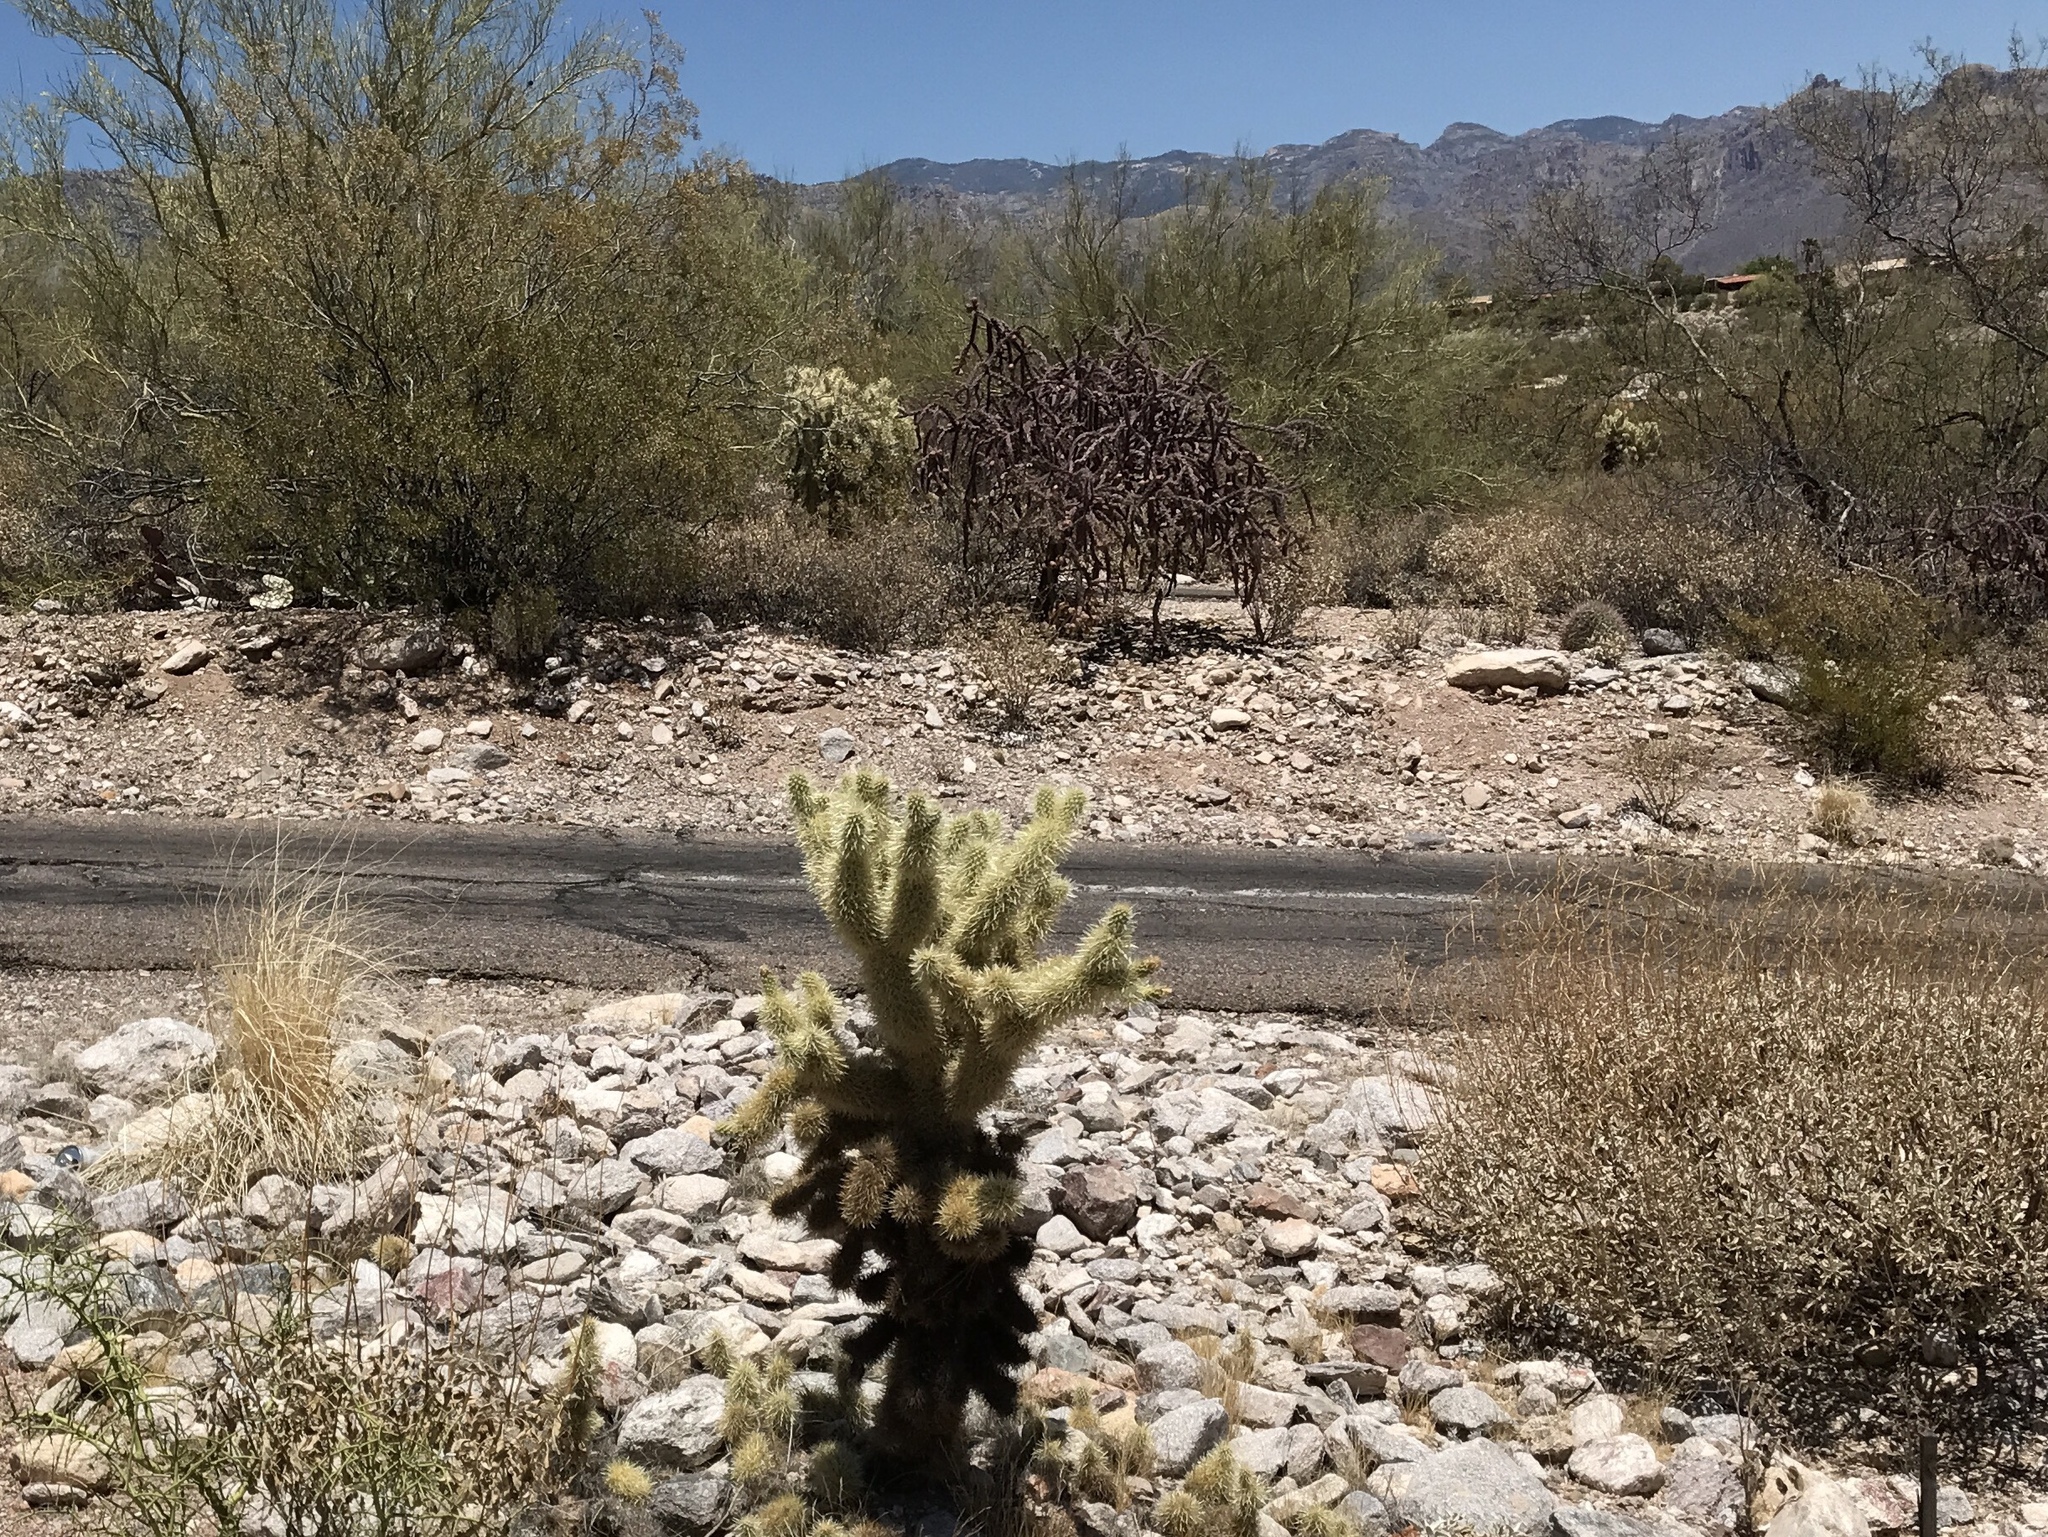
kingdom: Plantae
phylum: Tracheophyta
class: Magnoliopsida
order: Caryophyllales
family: Cactaceae
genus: Cylindropuntia
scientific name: Cylindropuntia fosbergii
